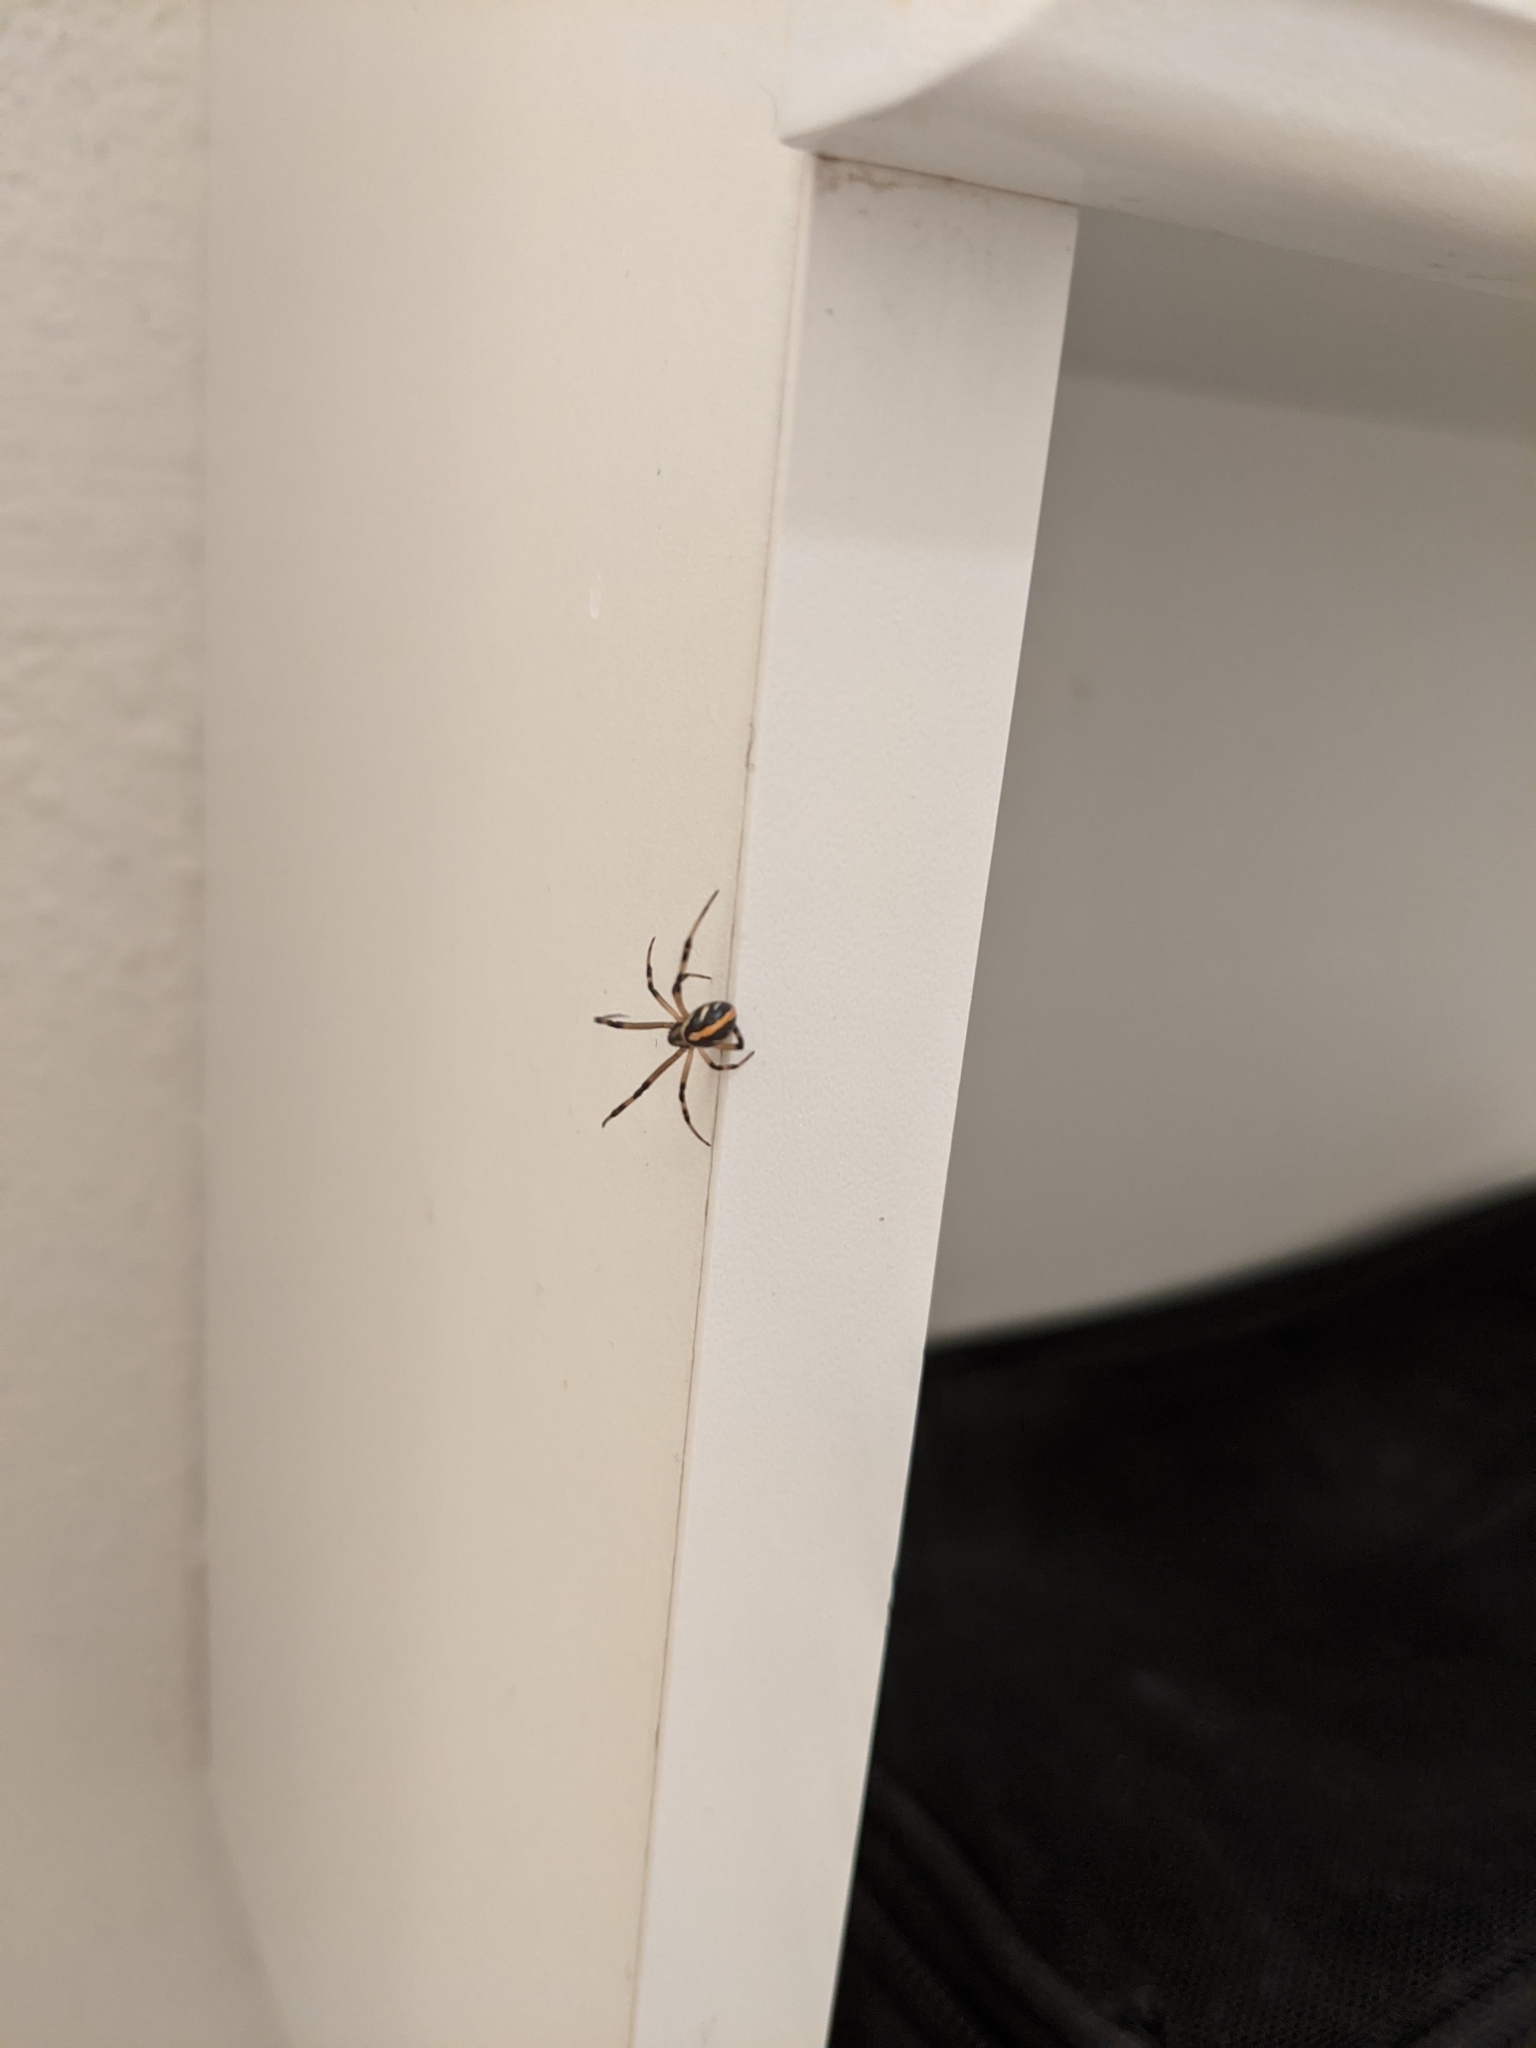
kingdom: Animalia
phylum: Arthropoda
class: Arachnida
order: Araneae
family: Theridiidae
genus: Latrodectus
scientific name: Latrodectus hesperus
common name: Western black widow
